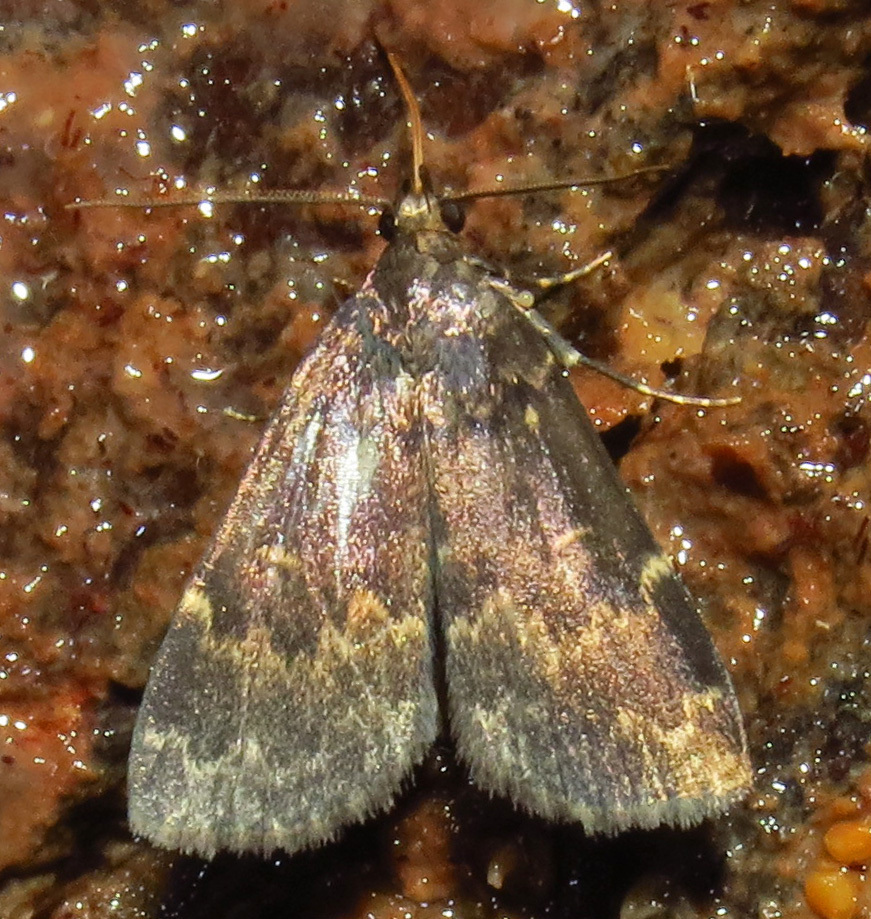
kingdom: Animalia
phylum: Arthropoda
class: Insecta
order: Lepidoptera
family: Erebidae
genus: Idia
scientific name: Idia lubricalis
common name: Twin-striped tabby
